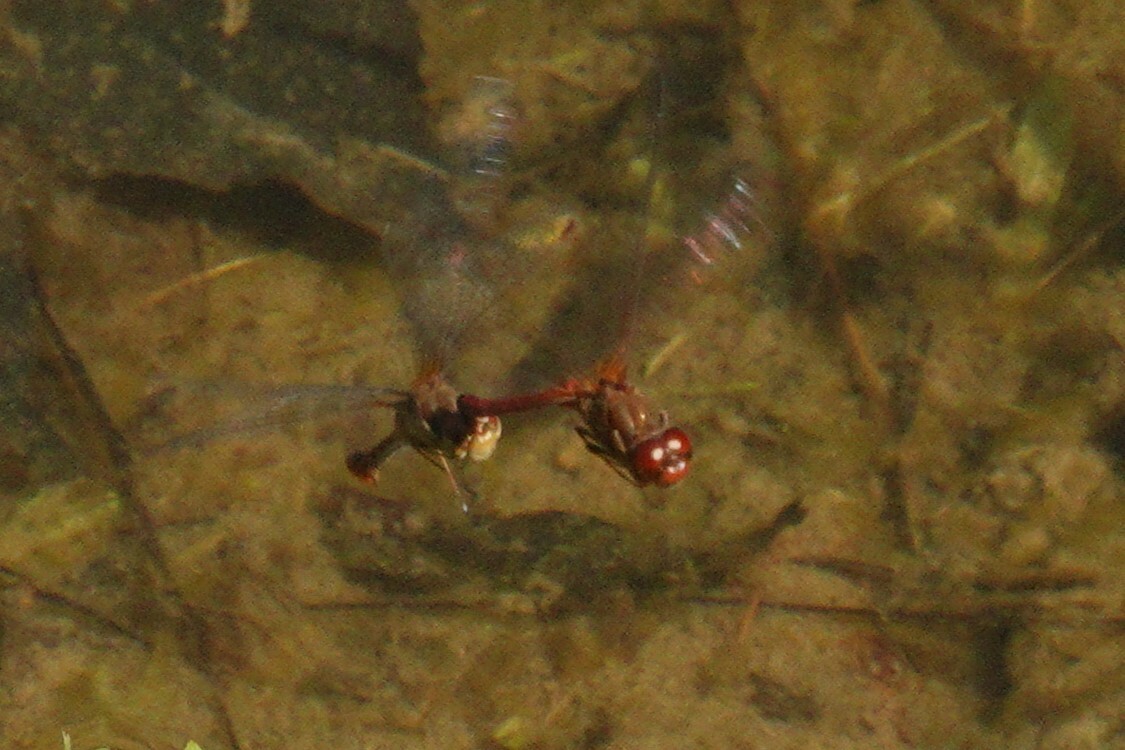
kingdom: Animalia
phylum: Arthropoda
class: Insecta
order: Odonata
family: Libellulidae
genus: Sympetrum
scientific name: Sympetrum vicinum
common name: Autumn meadowhawk
